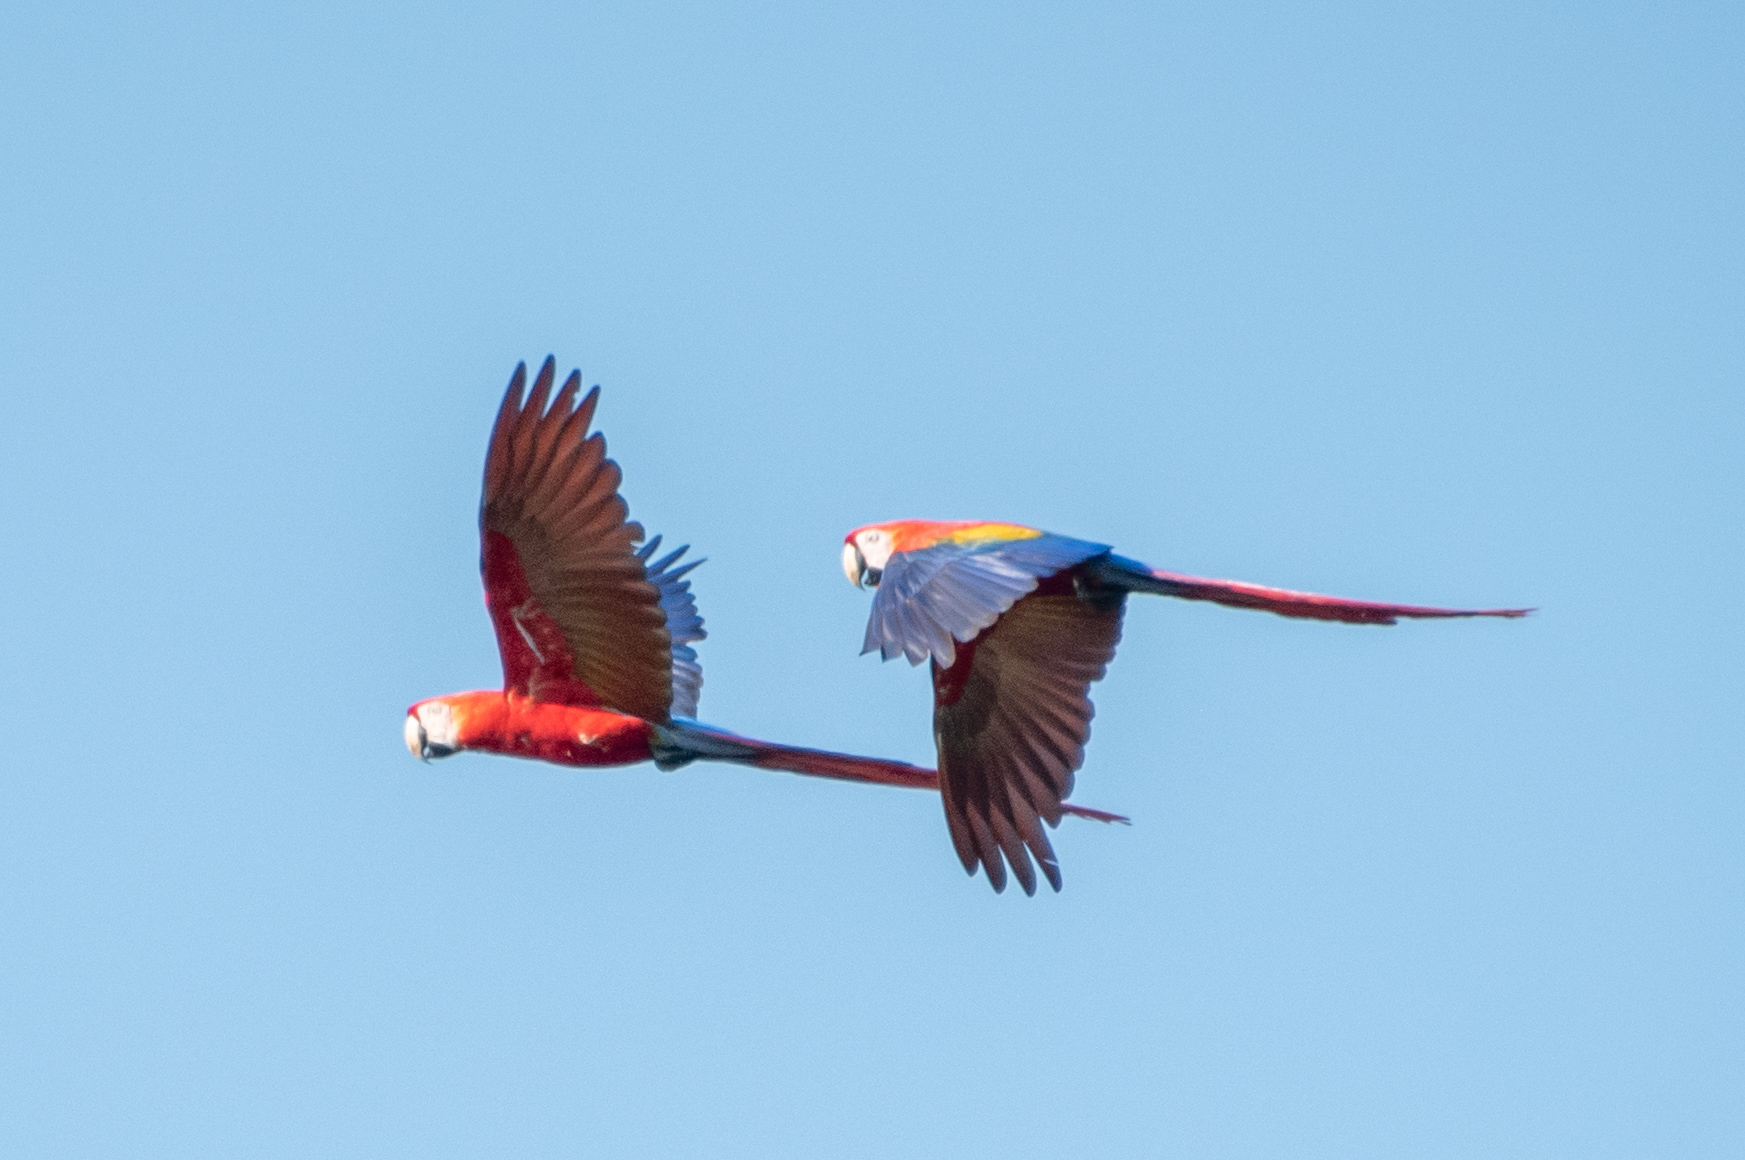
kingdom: Animalia
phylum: Chordata
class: Aves
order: Psittaciformes
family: Psittacidae
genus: Ara
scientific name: Ara macao
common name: Scarlet macaw
